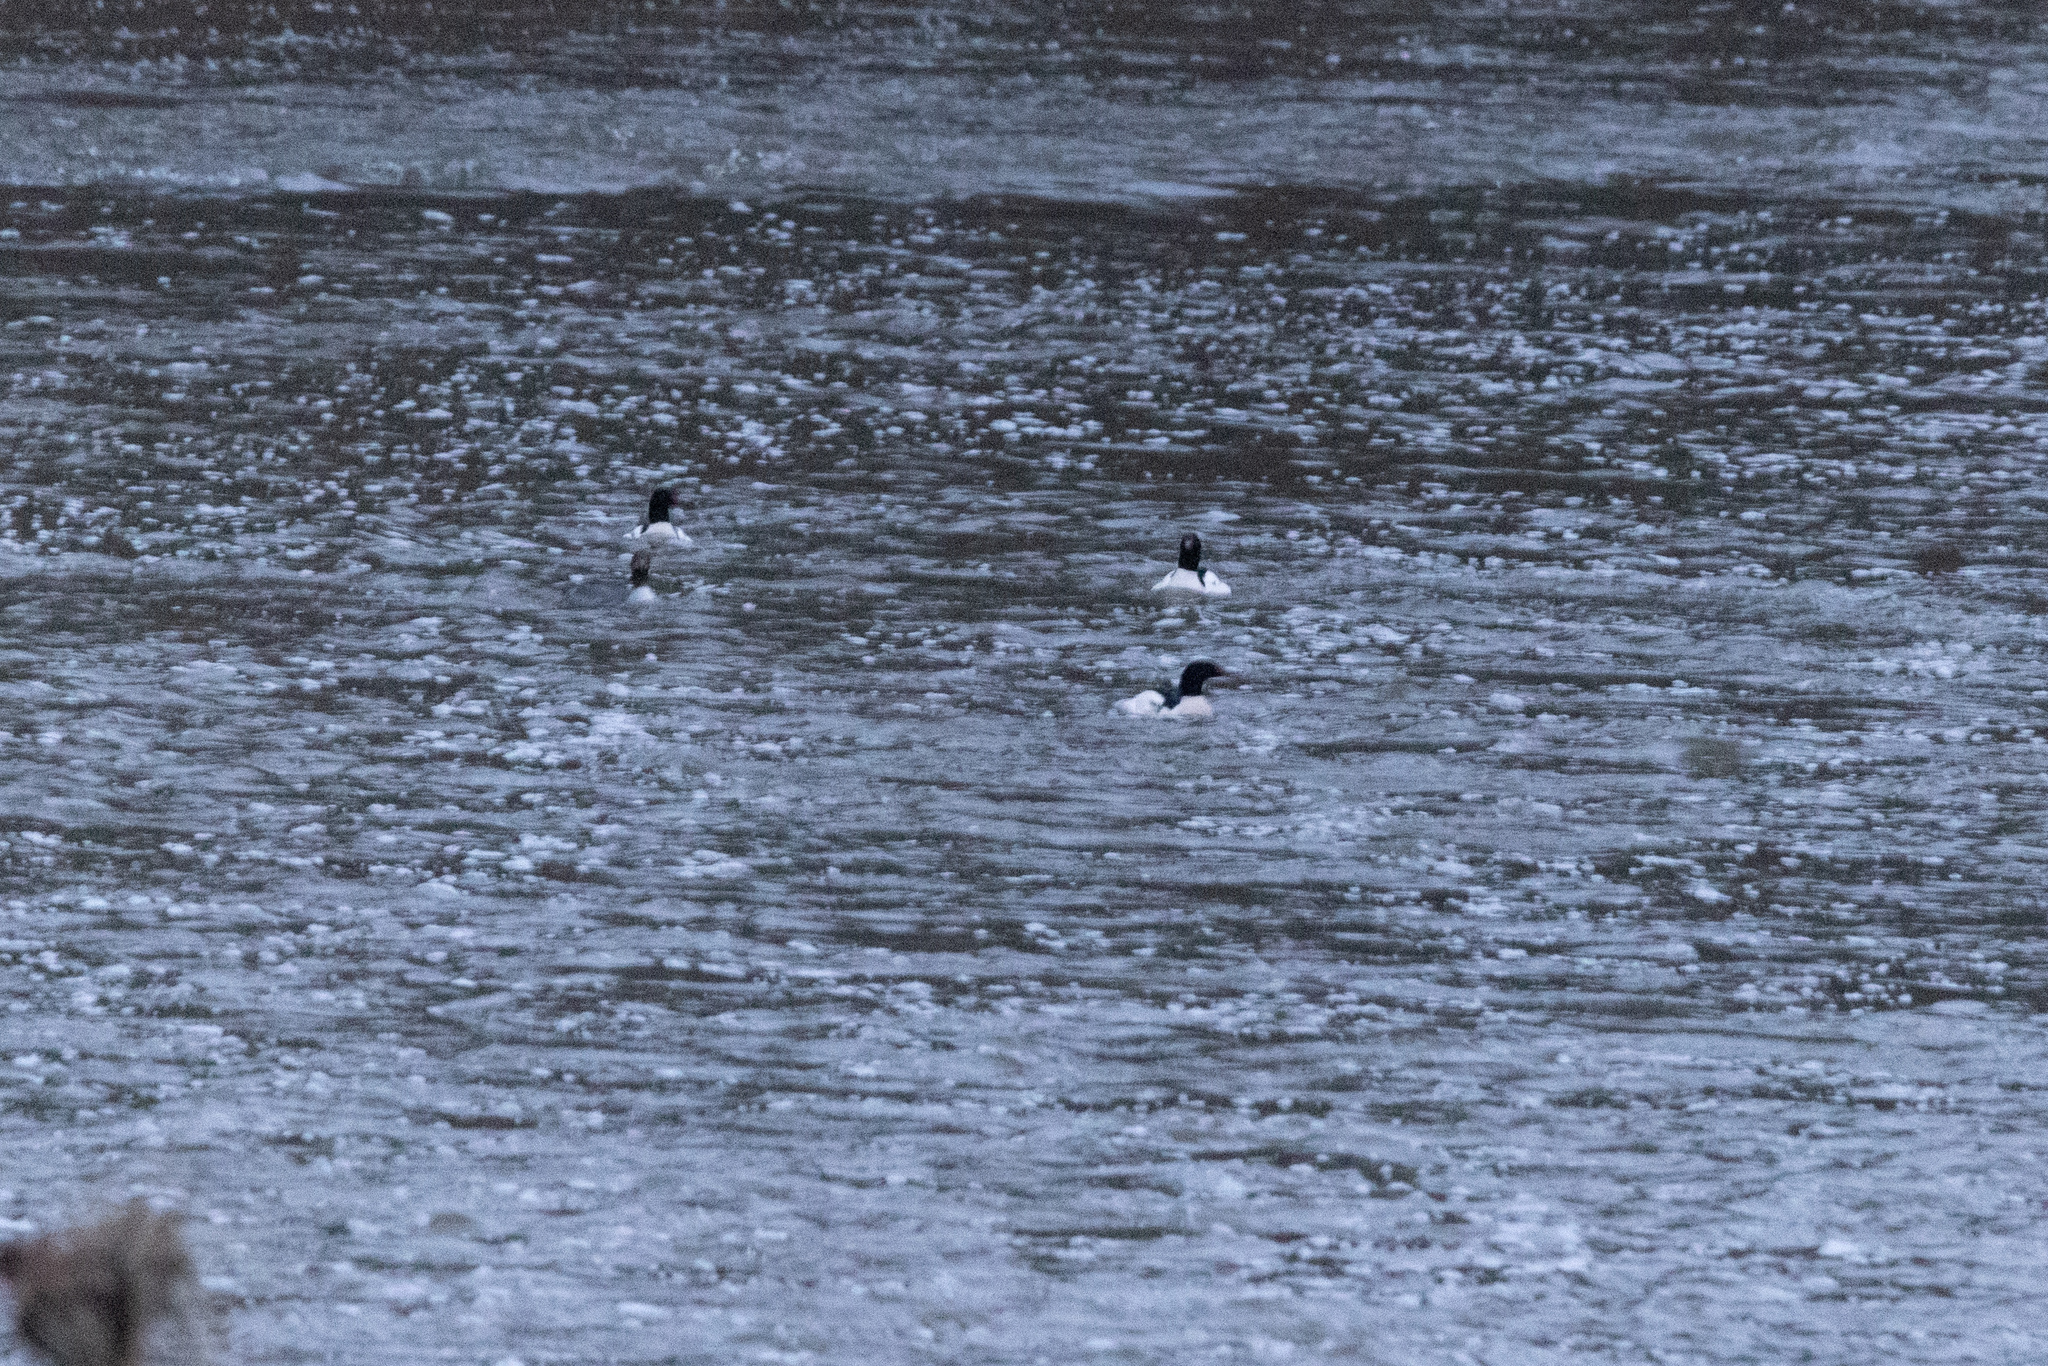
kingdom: Animalia
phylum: Chordata
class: Aves
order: Anseriformes
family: Anatidae
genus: Mergus
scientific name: Mergus merganser
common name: Common merganser
